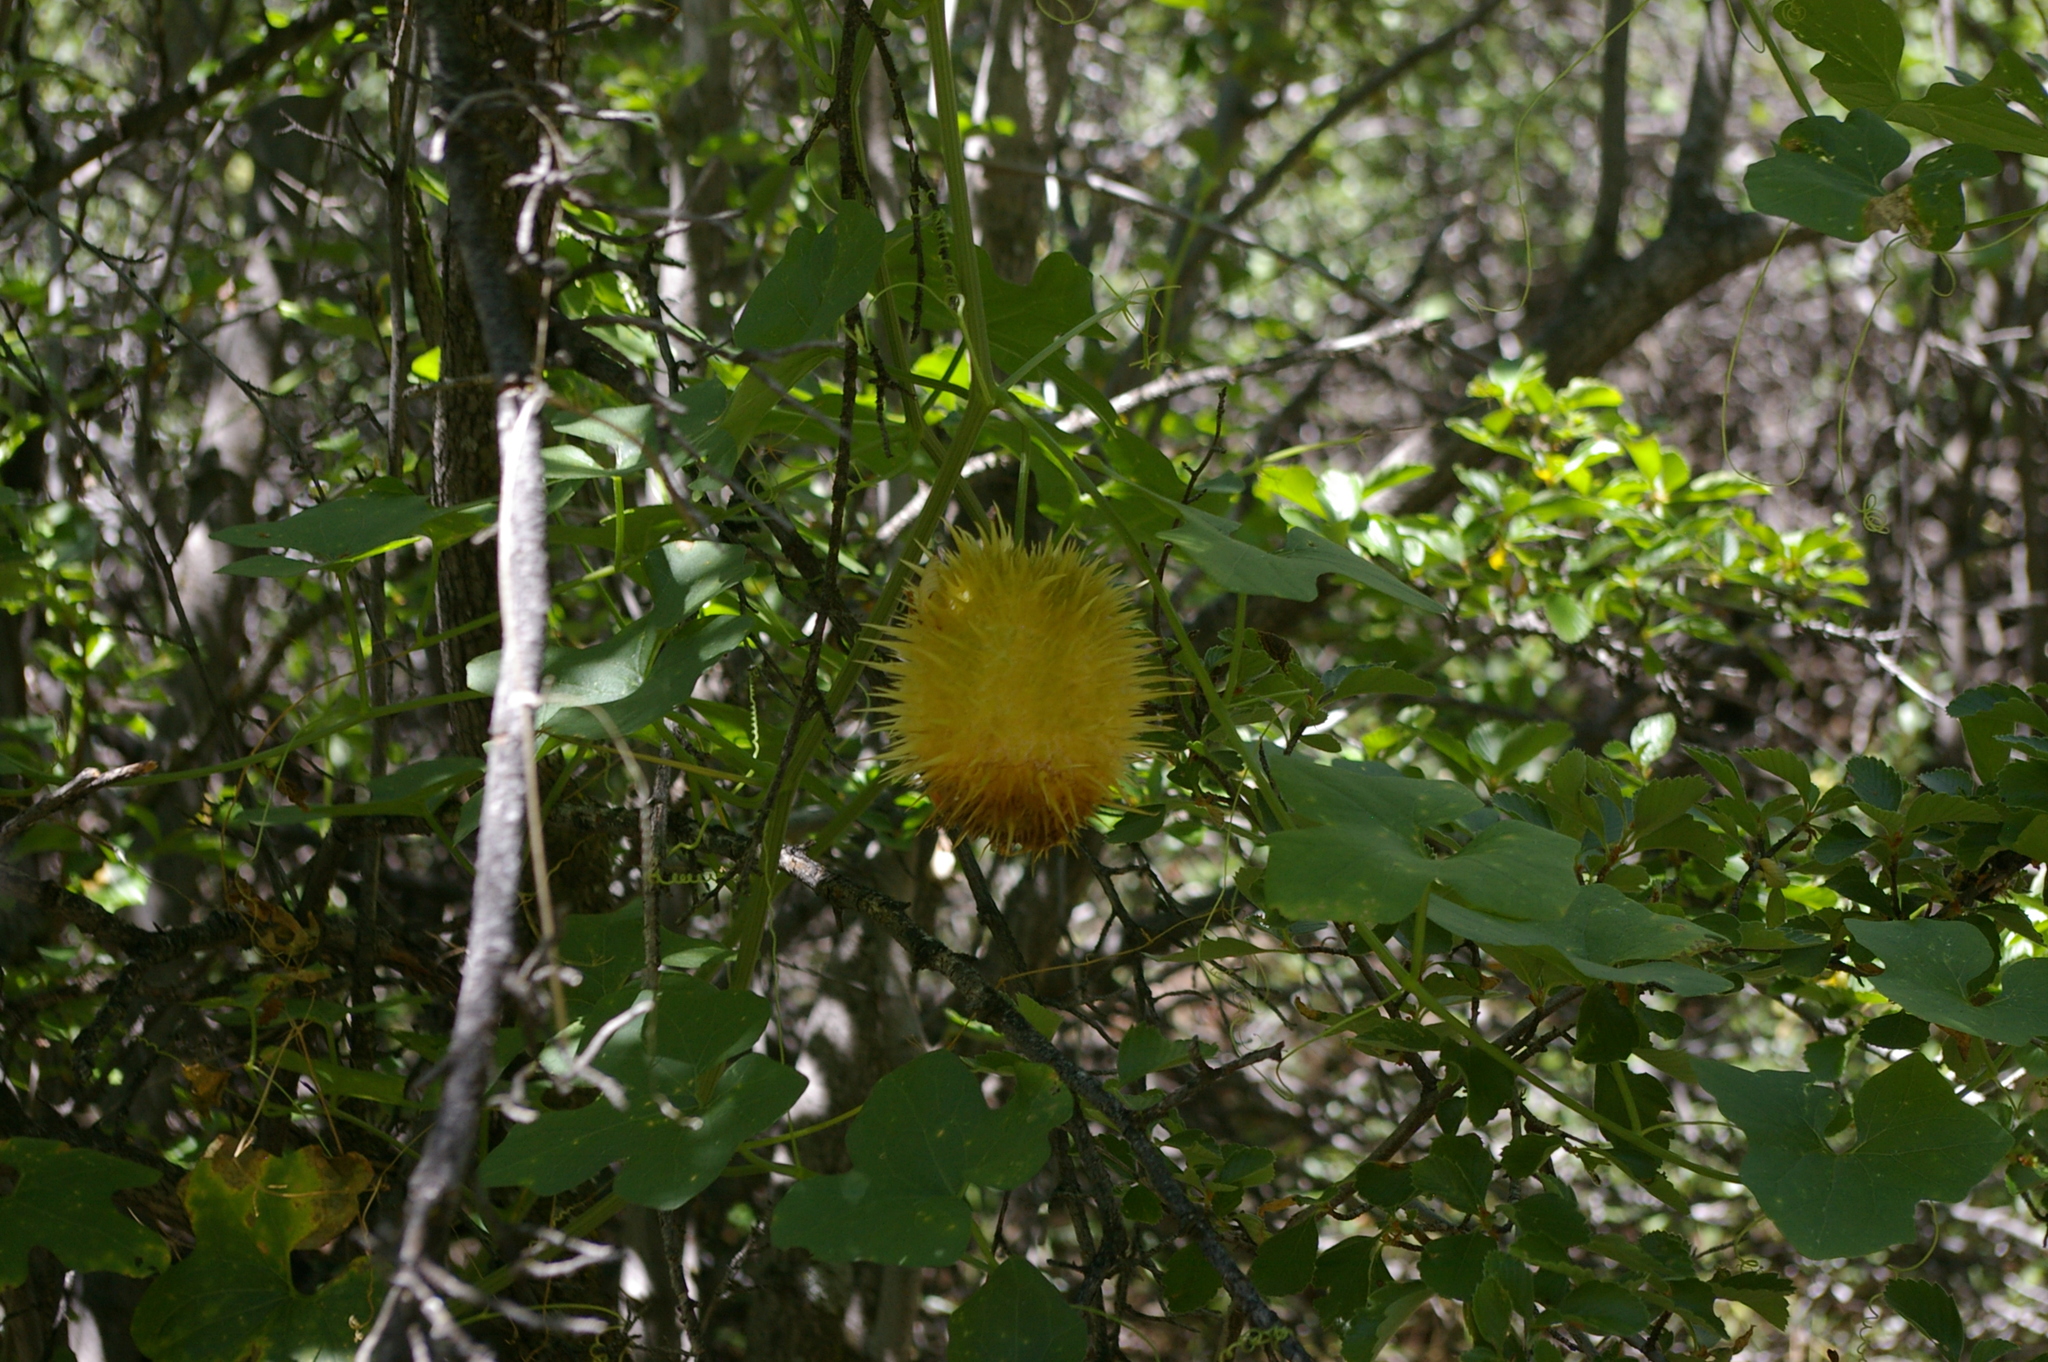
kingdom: Plantae
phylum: Tracheophyta
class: Magnoliopsida
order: Cucurbitales
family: Cucurbitaceae
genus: Marah
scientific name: Marah horrida
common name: Sierra manroot
